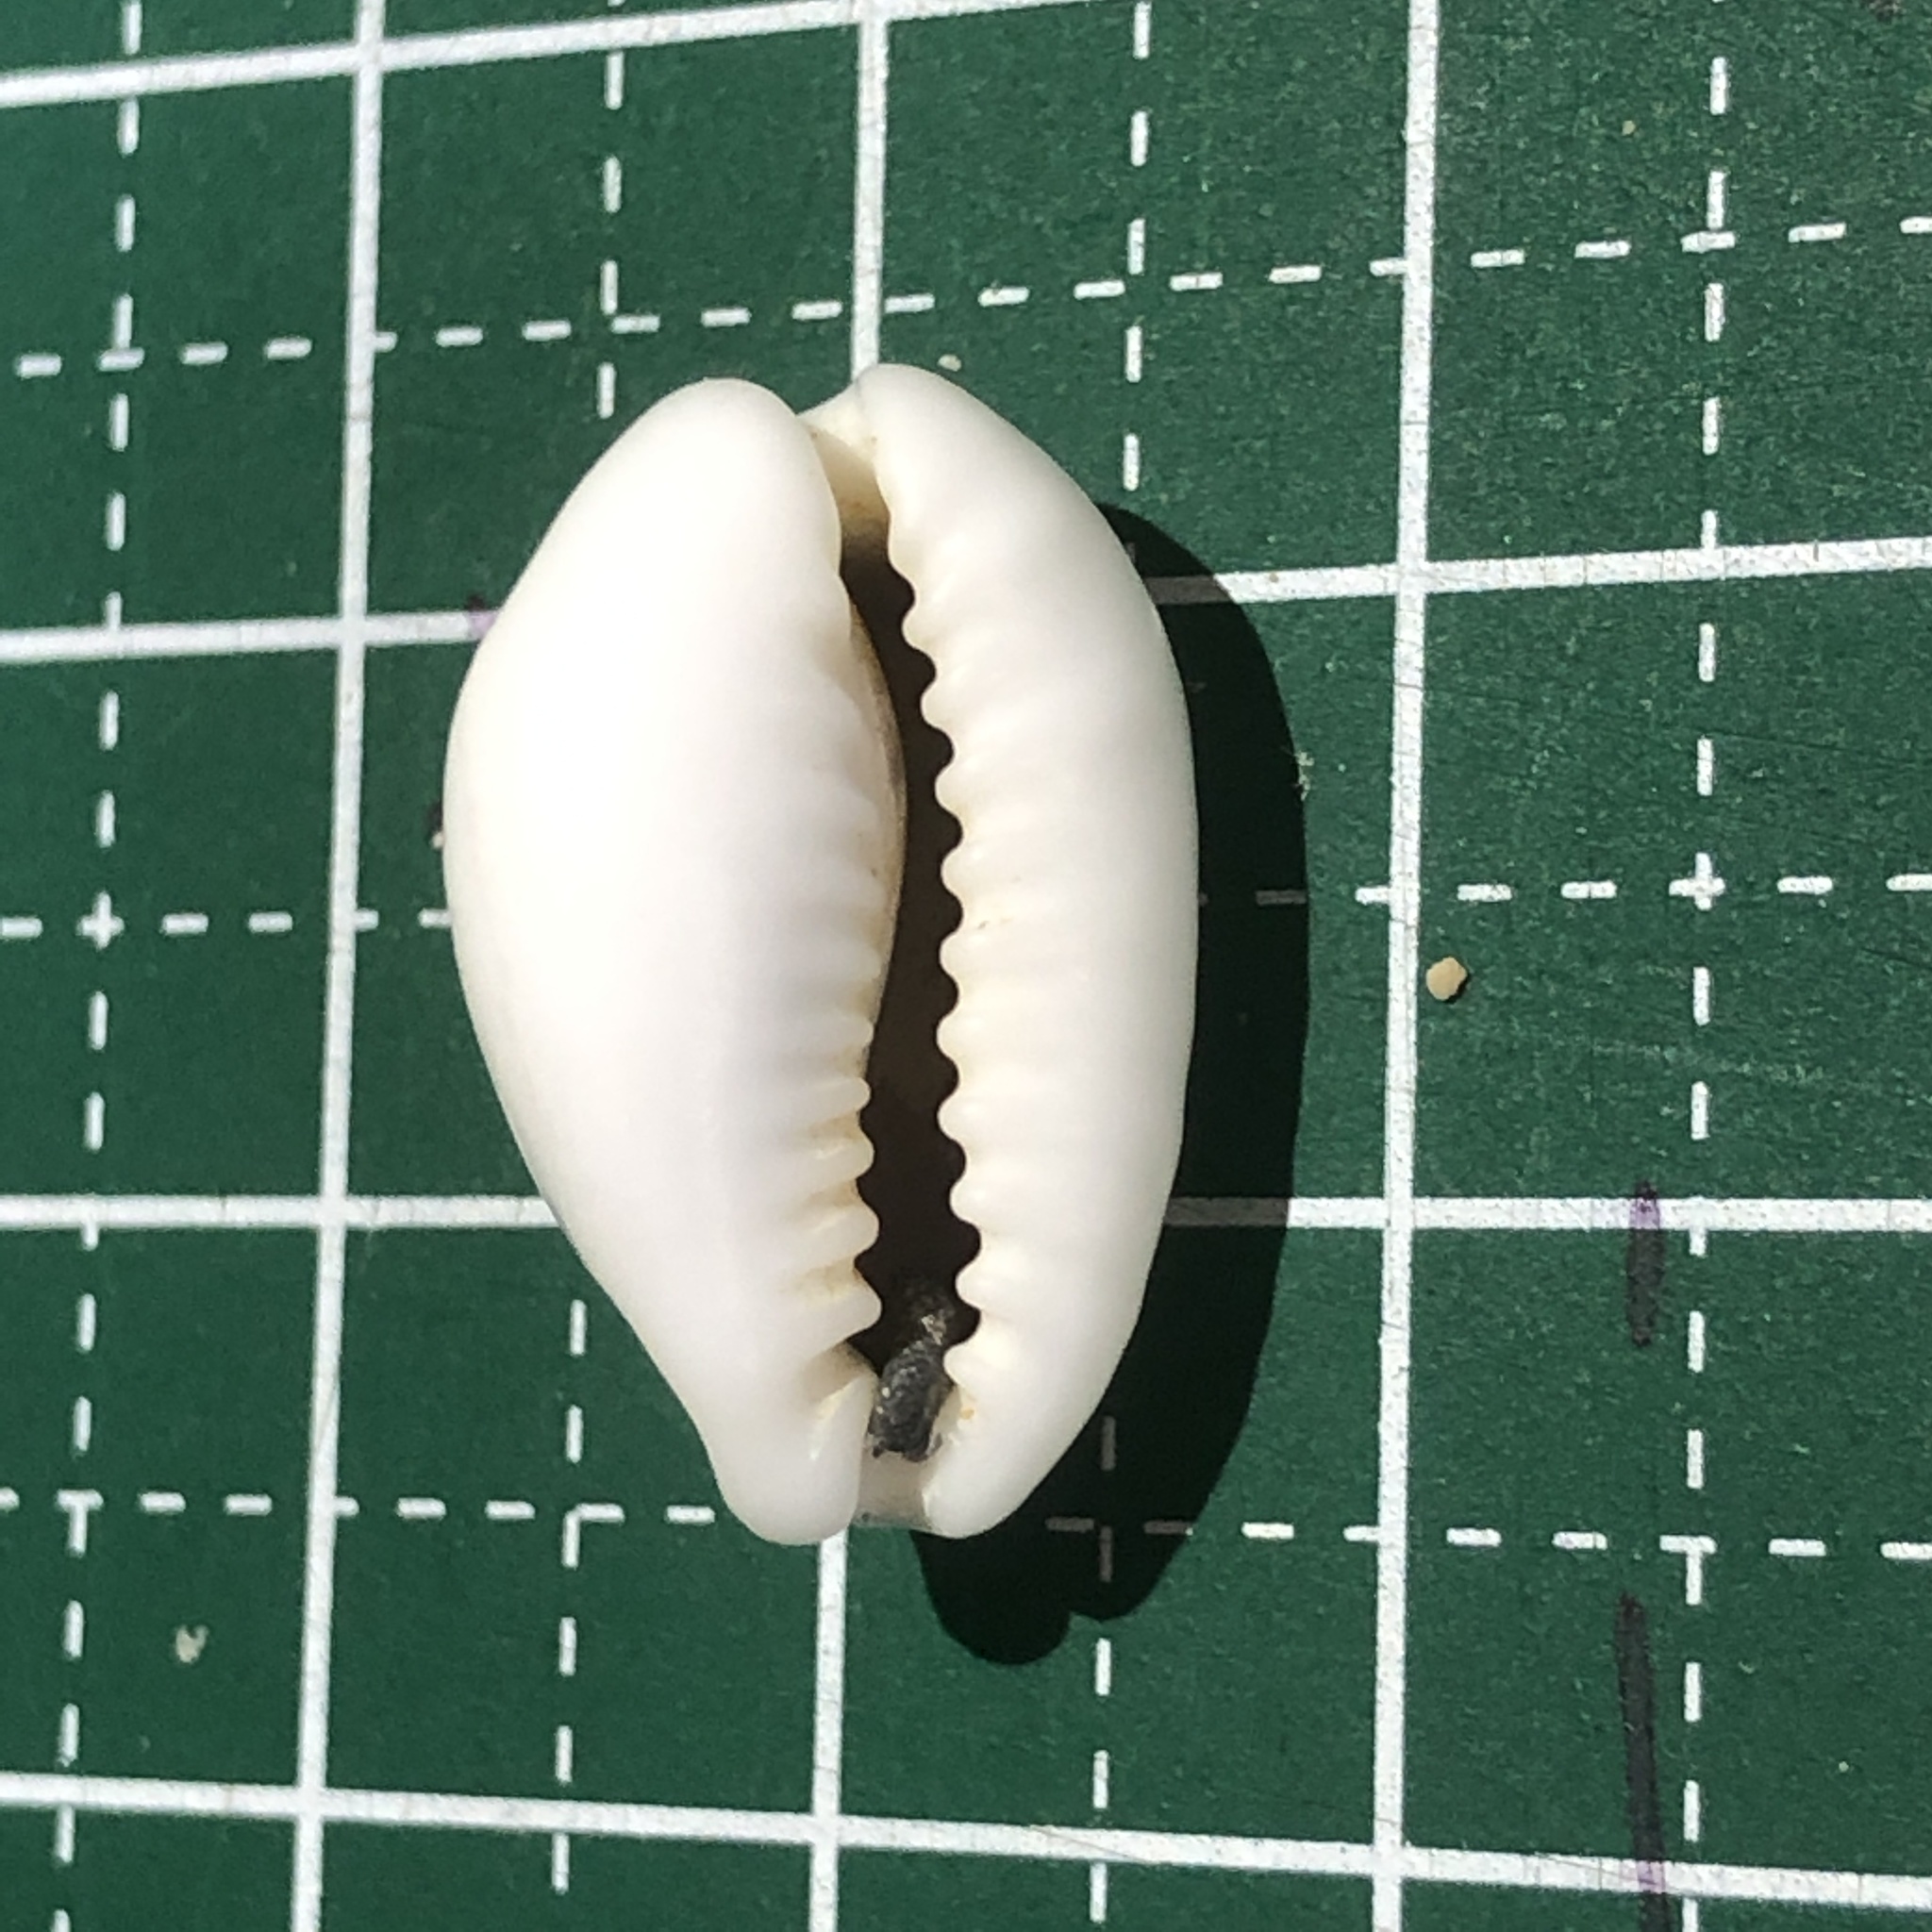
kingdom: Animalia
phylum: Mollusca
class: Gastropoda
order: Littorinimorpha
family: Cypraeidae
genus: Monetaria
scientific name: Monetaria moneta
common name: Money cowrie
